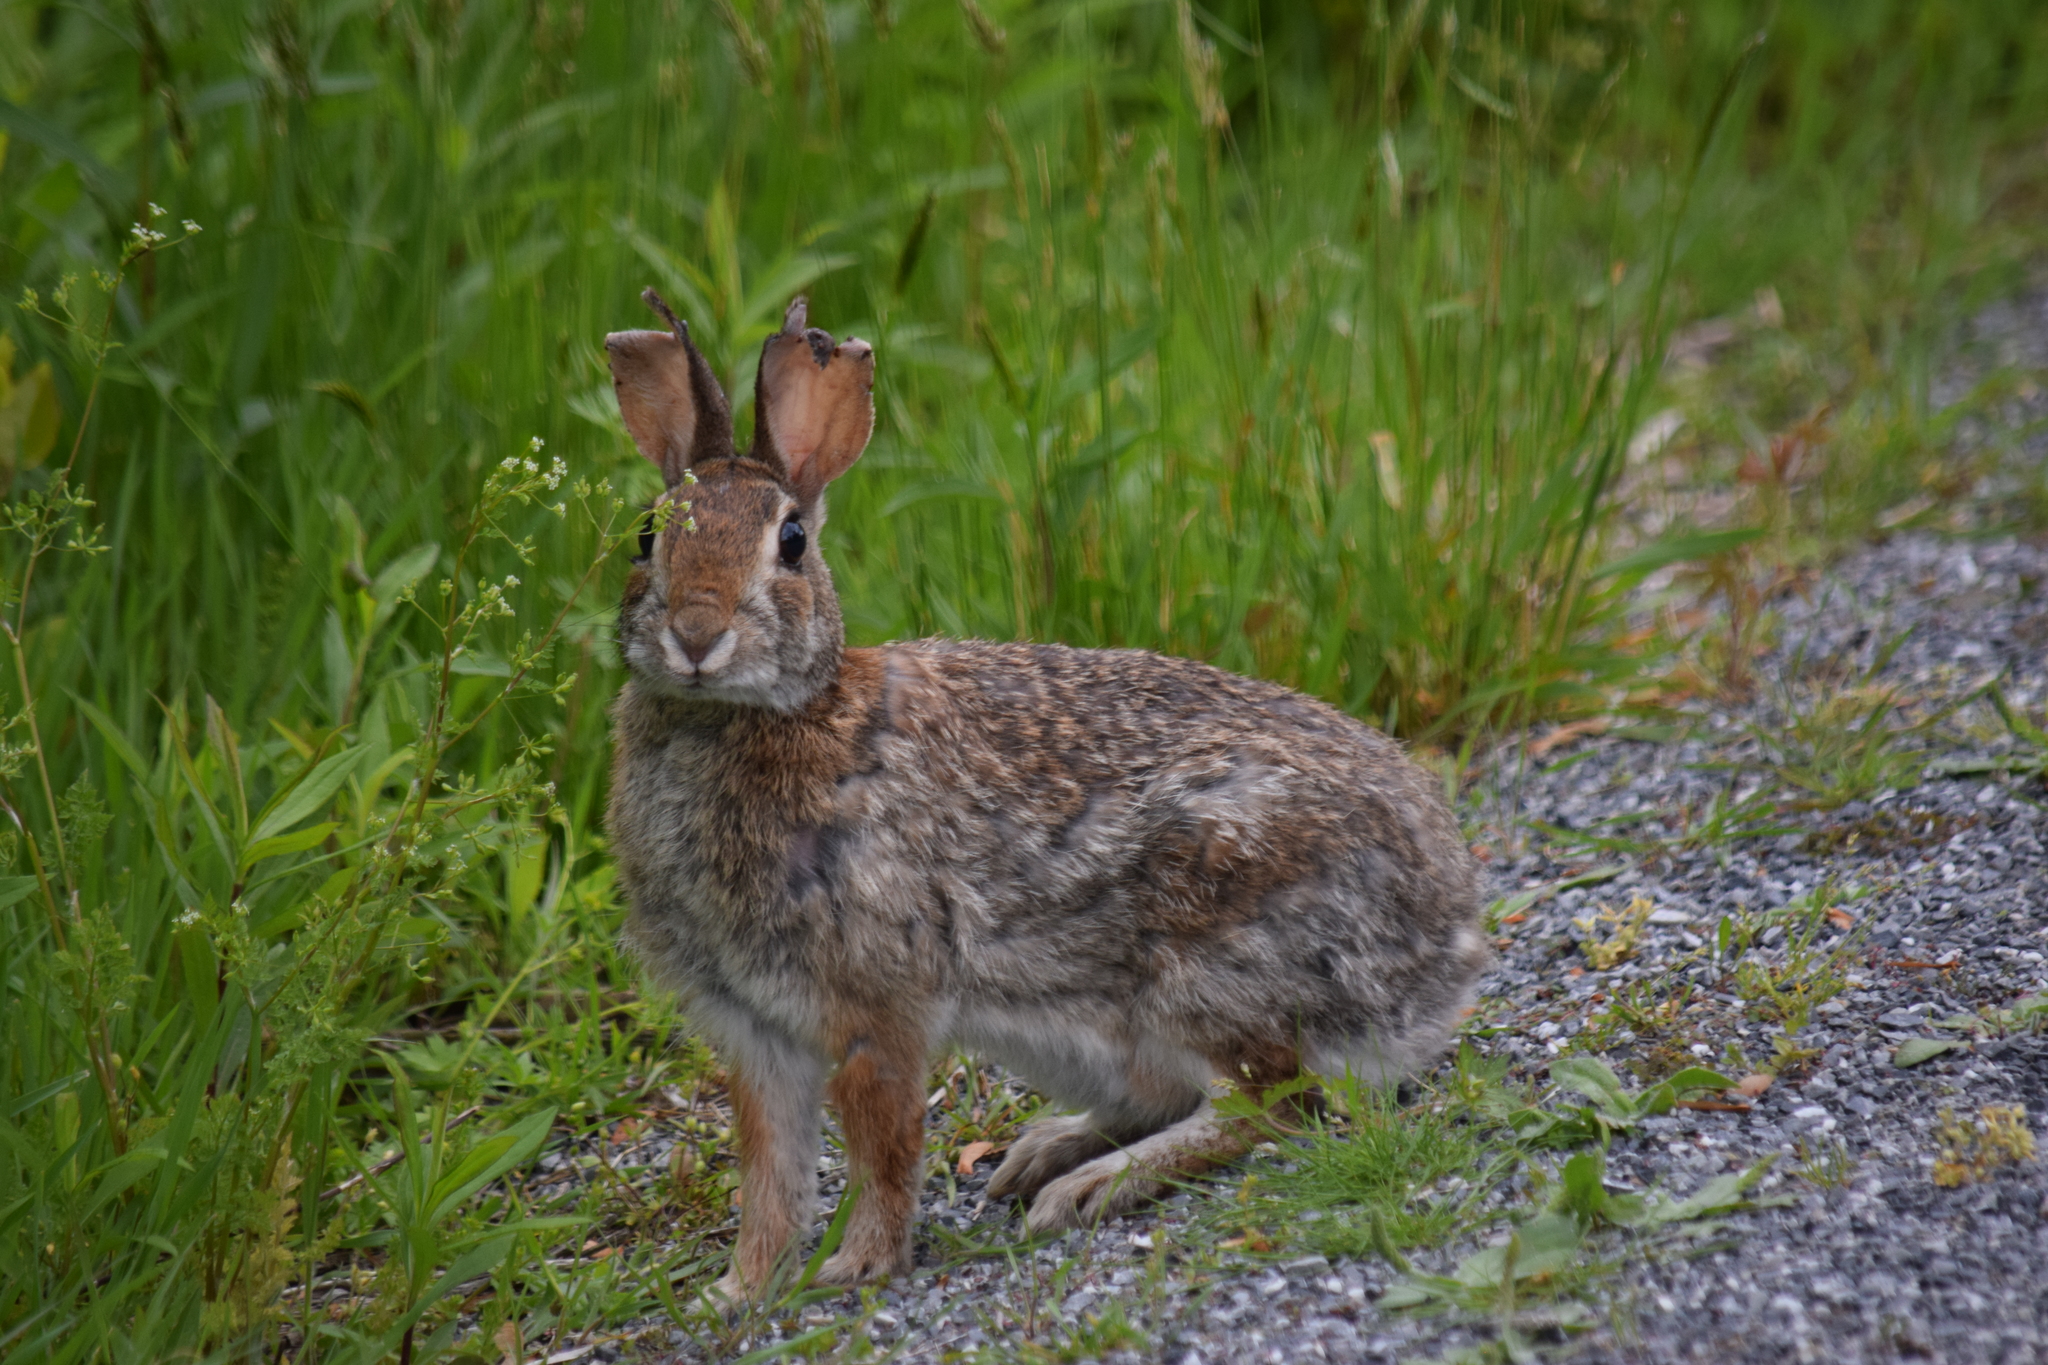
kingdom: Animalia
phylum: Chordata
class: Mammalia
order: Lagomorpha
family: Leporidae
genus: Sylvilagus
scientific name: Sylvilagus floridanus
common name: Eastern cottontail
